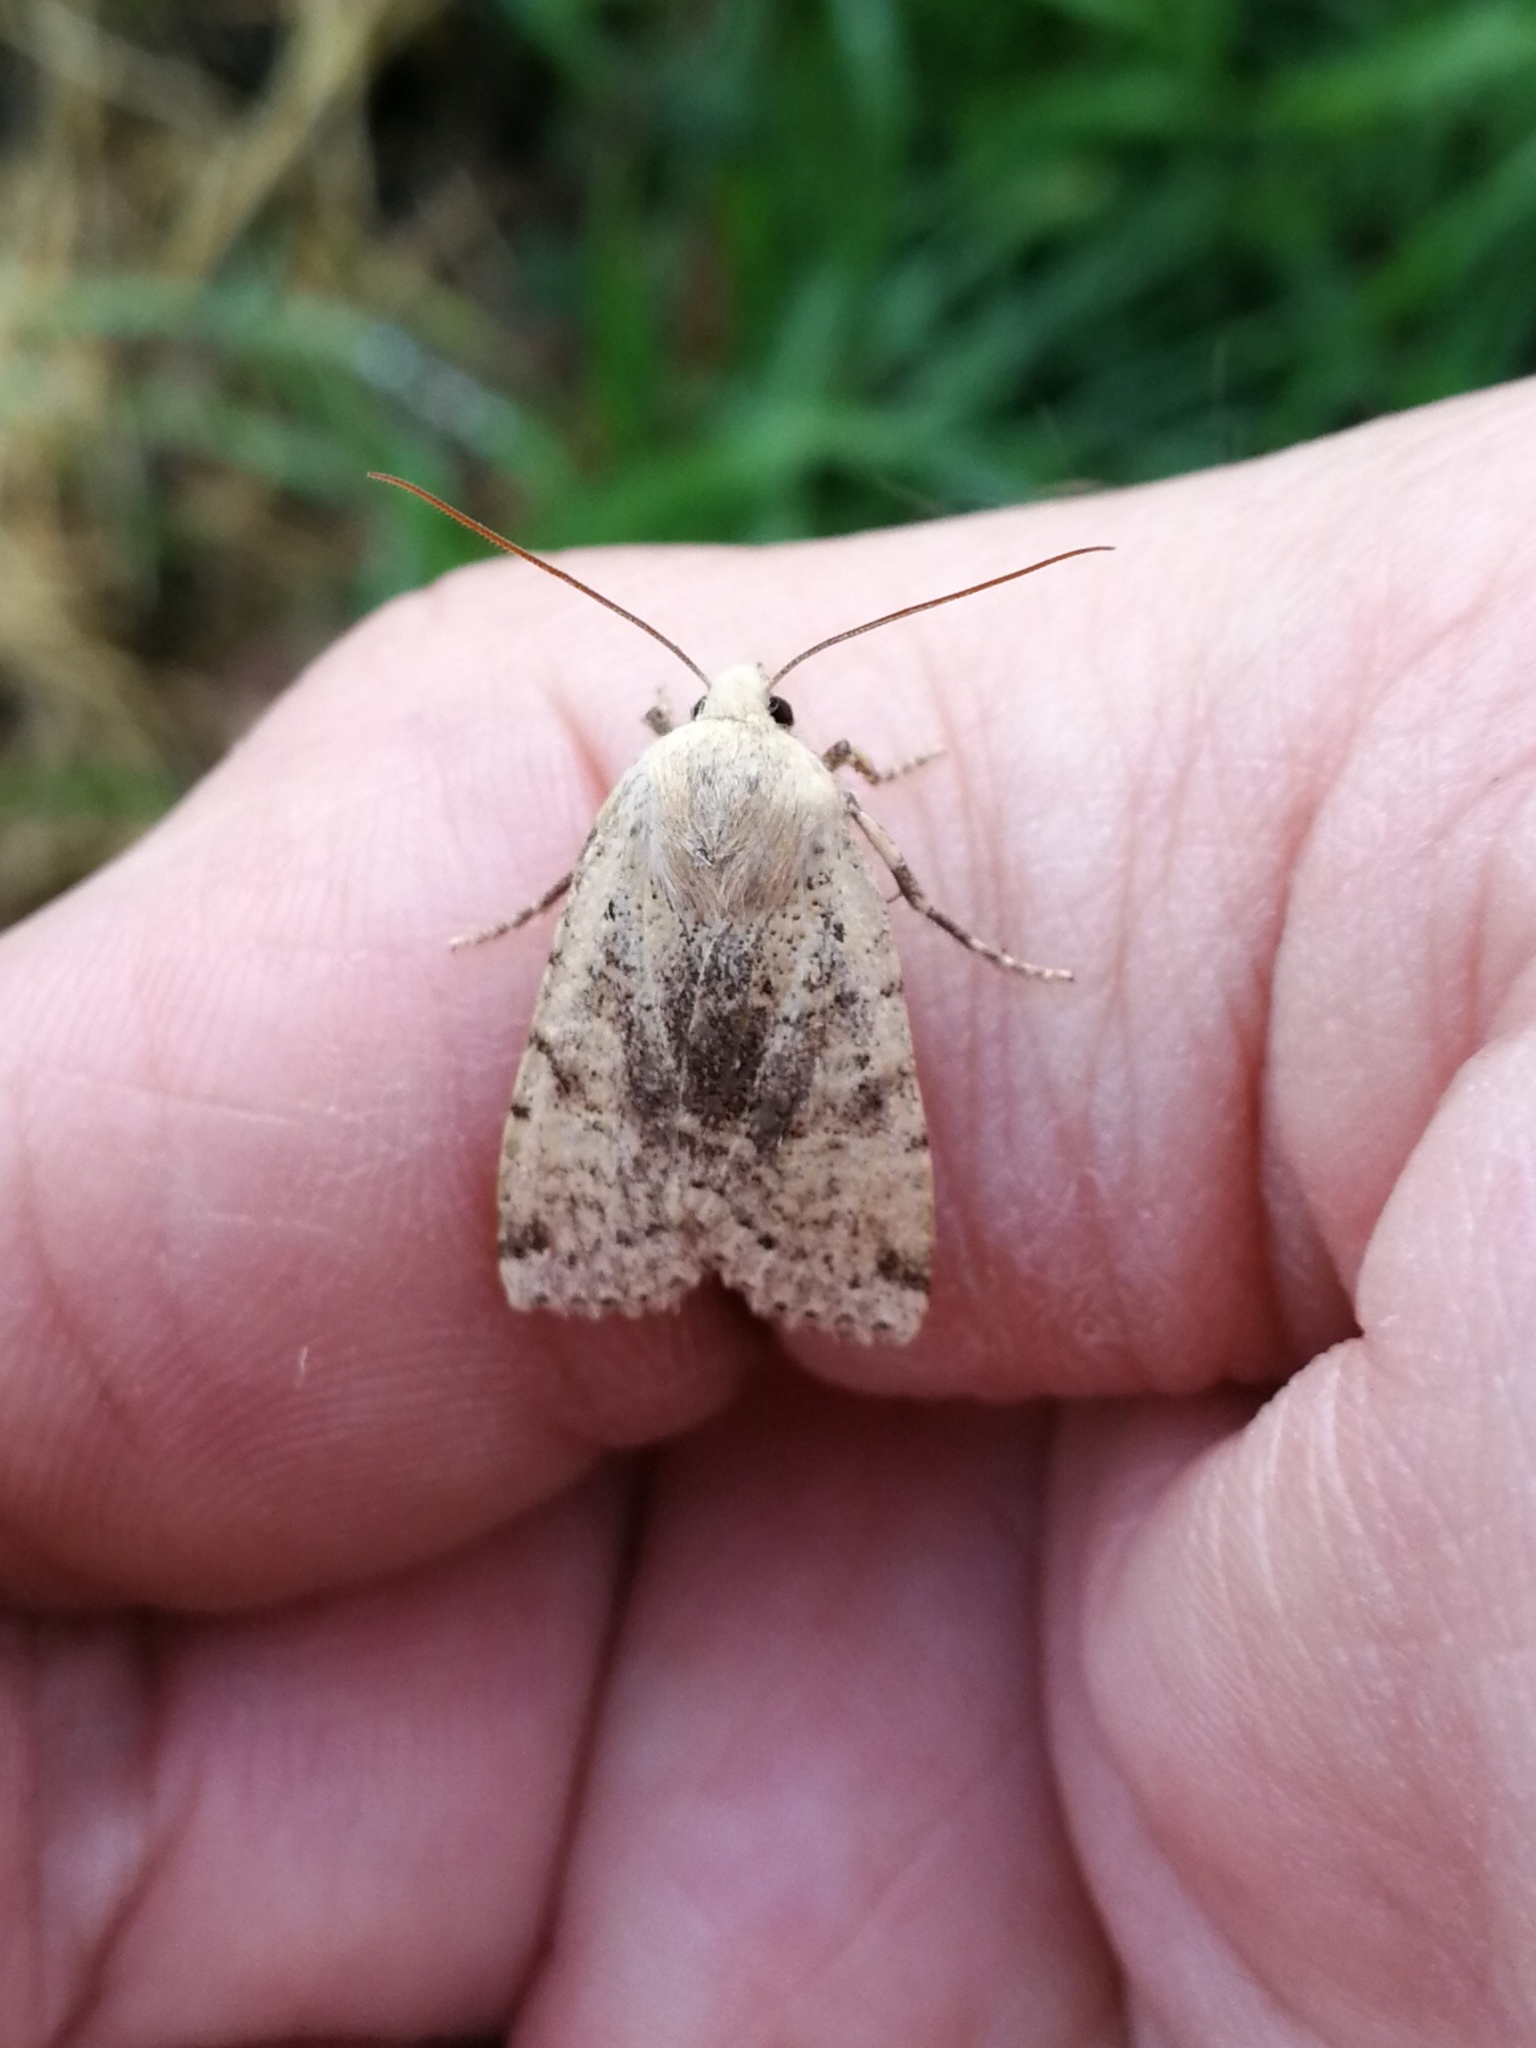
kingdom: Animalia
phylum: Arthropoda
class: Insecta
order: Lepidoptera
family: Noctuidae
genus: Conistra
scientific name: Conistra daubei
